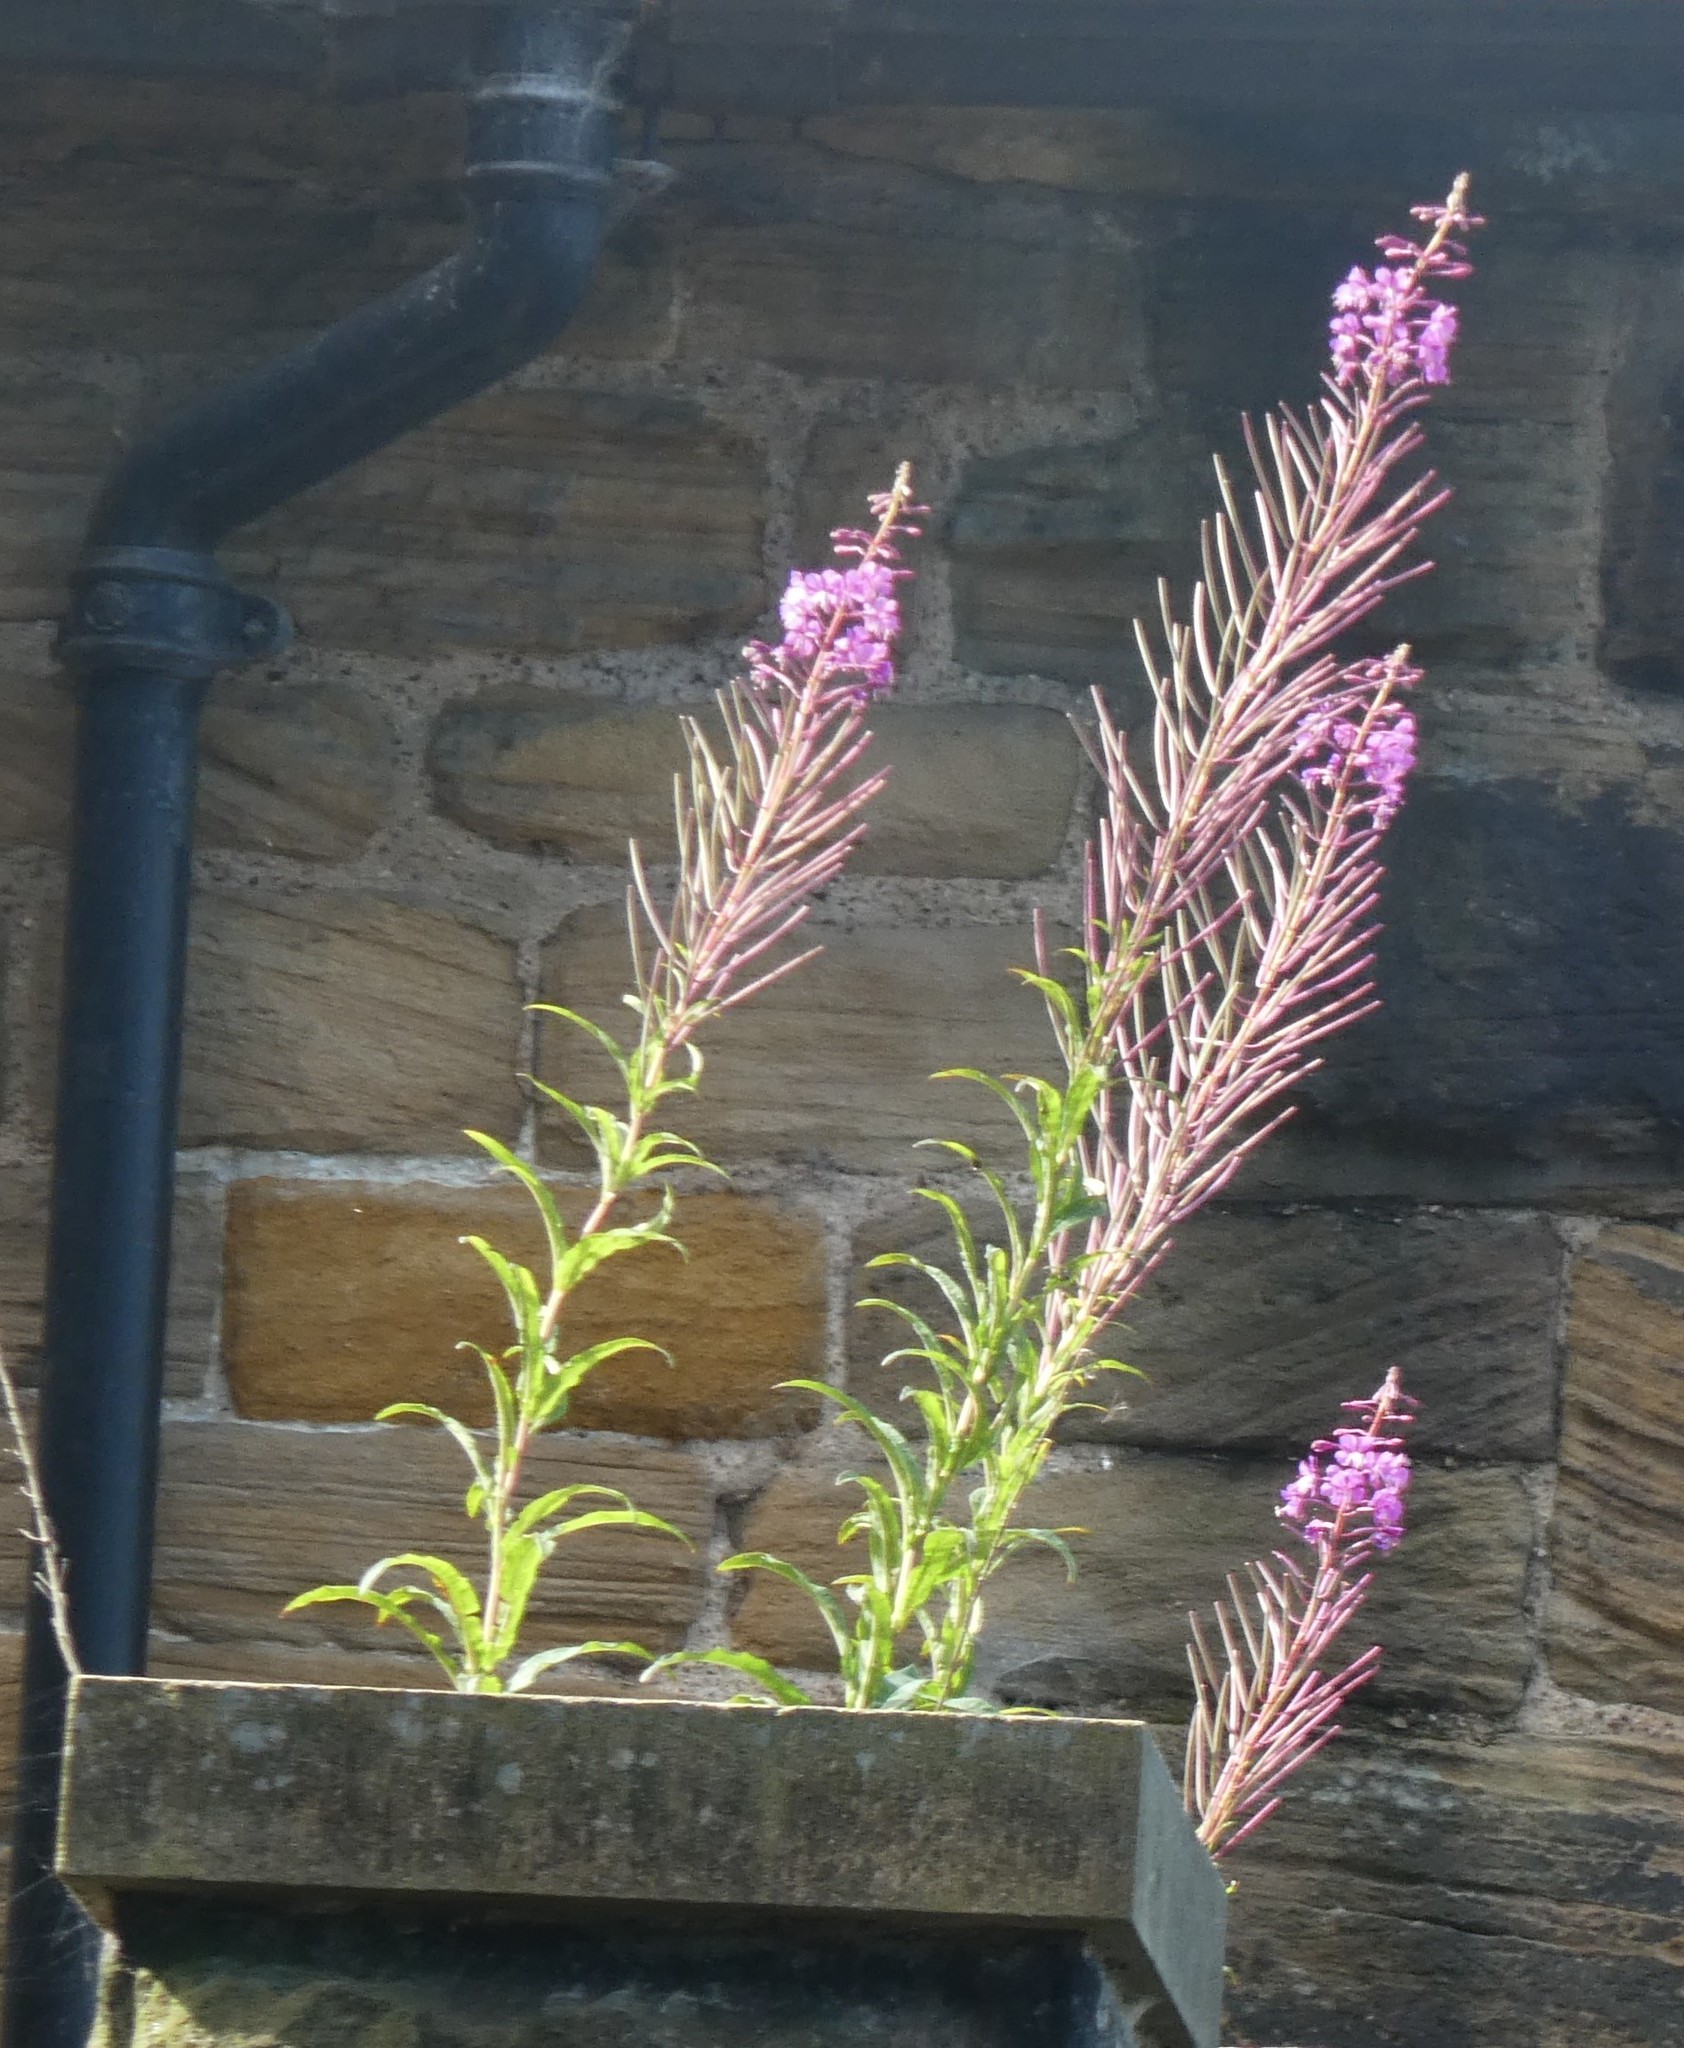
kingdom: Plantae
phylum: Tracheophyta
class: Magnoliopsida
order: Myrtales
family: Onagraceae
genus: Chamaenerion
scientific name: Chamaenerion angustifolium
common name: Fireweed
